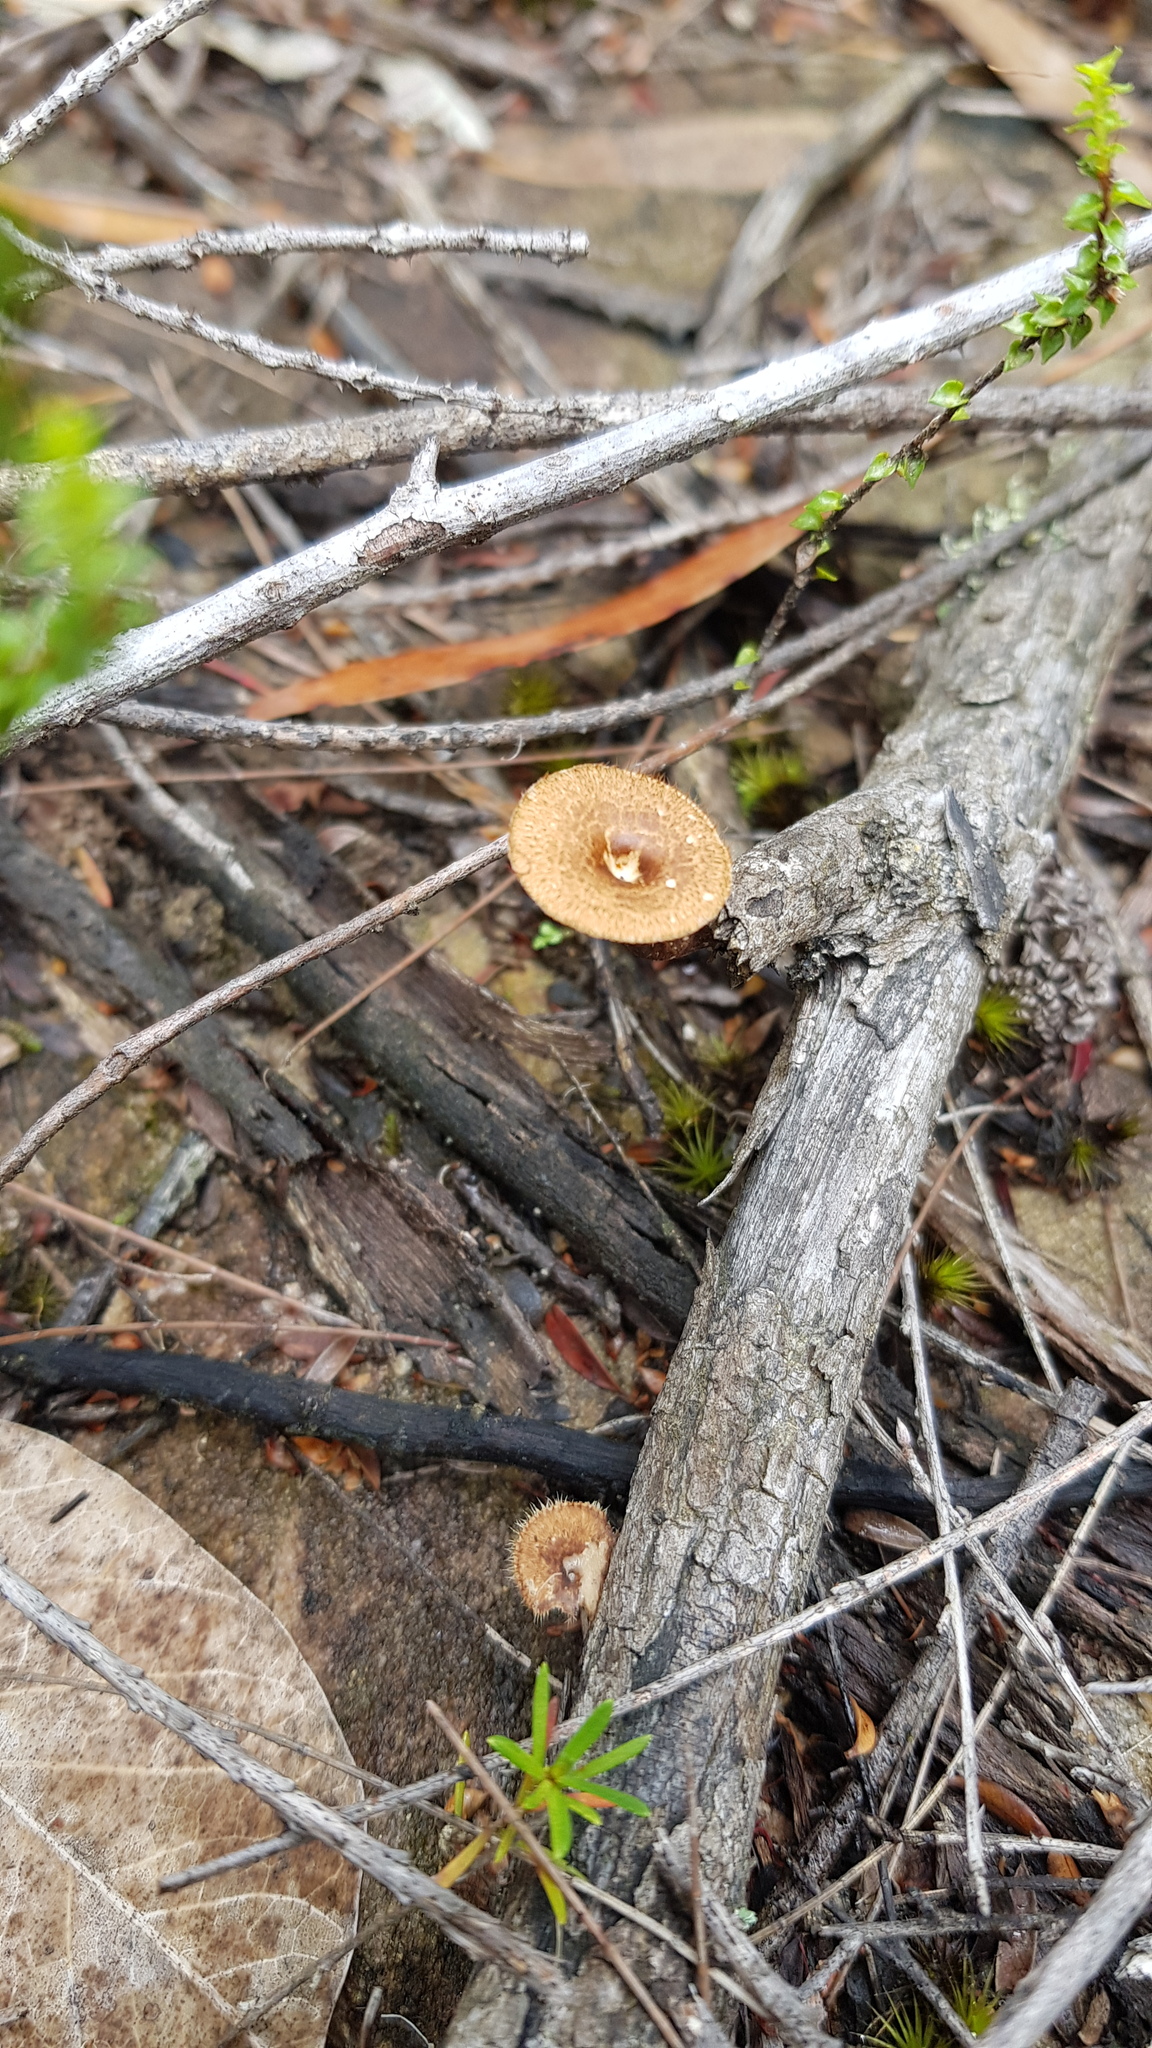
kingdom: Fungi
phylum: Basidiomycota
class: Agaricomycetes
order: Polyporales
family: Polyporaceae
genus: Lentinus
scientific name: Lentinus arcularius
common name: Spring polypore
